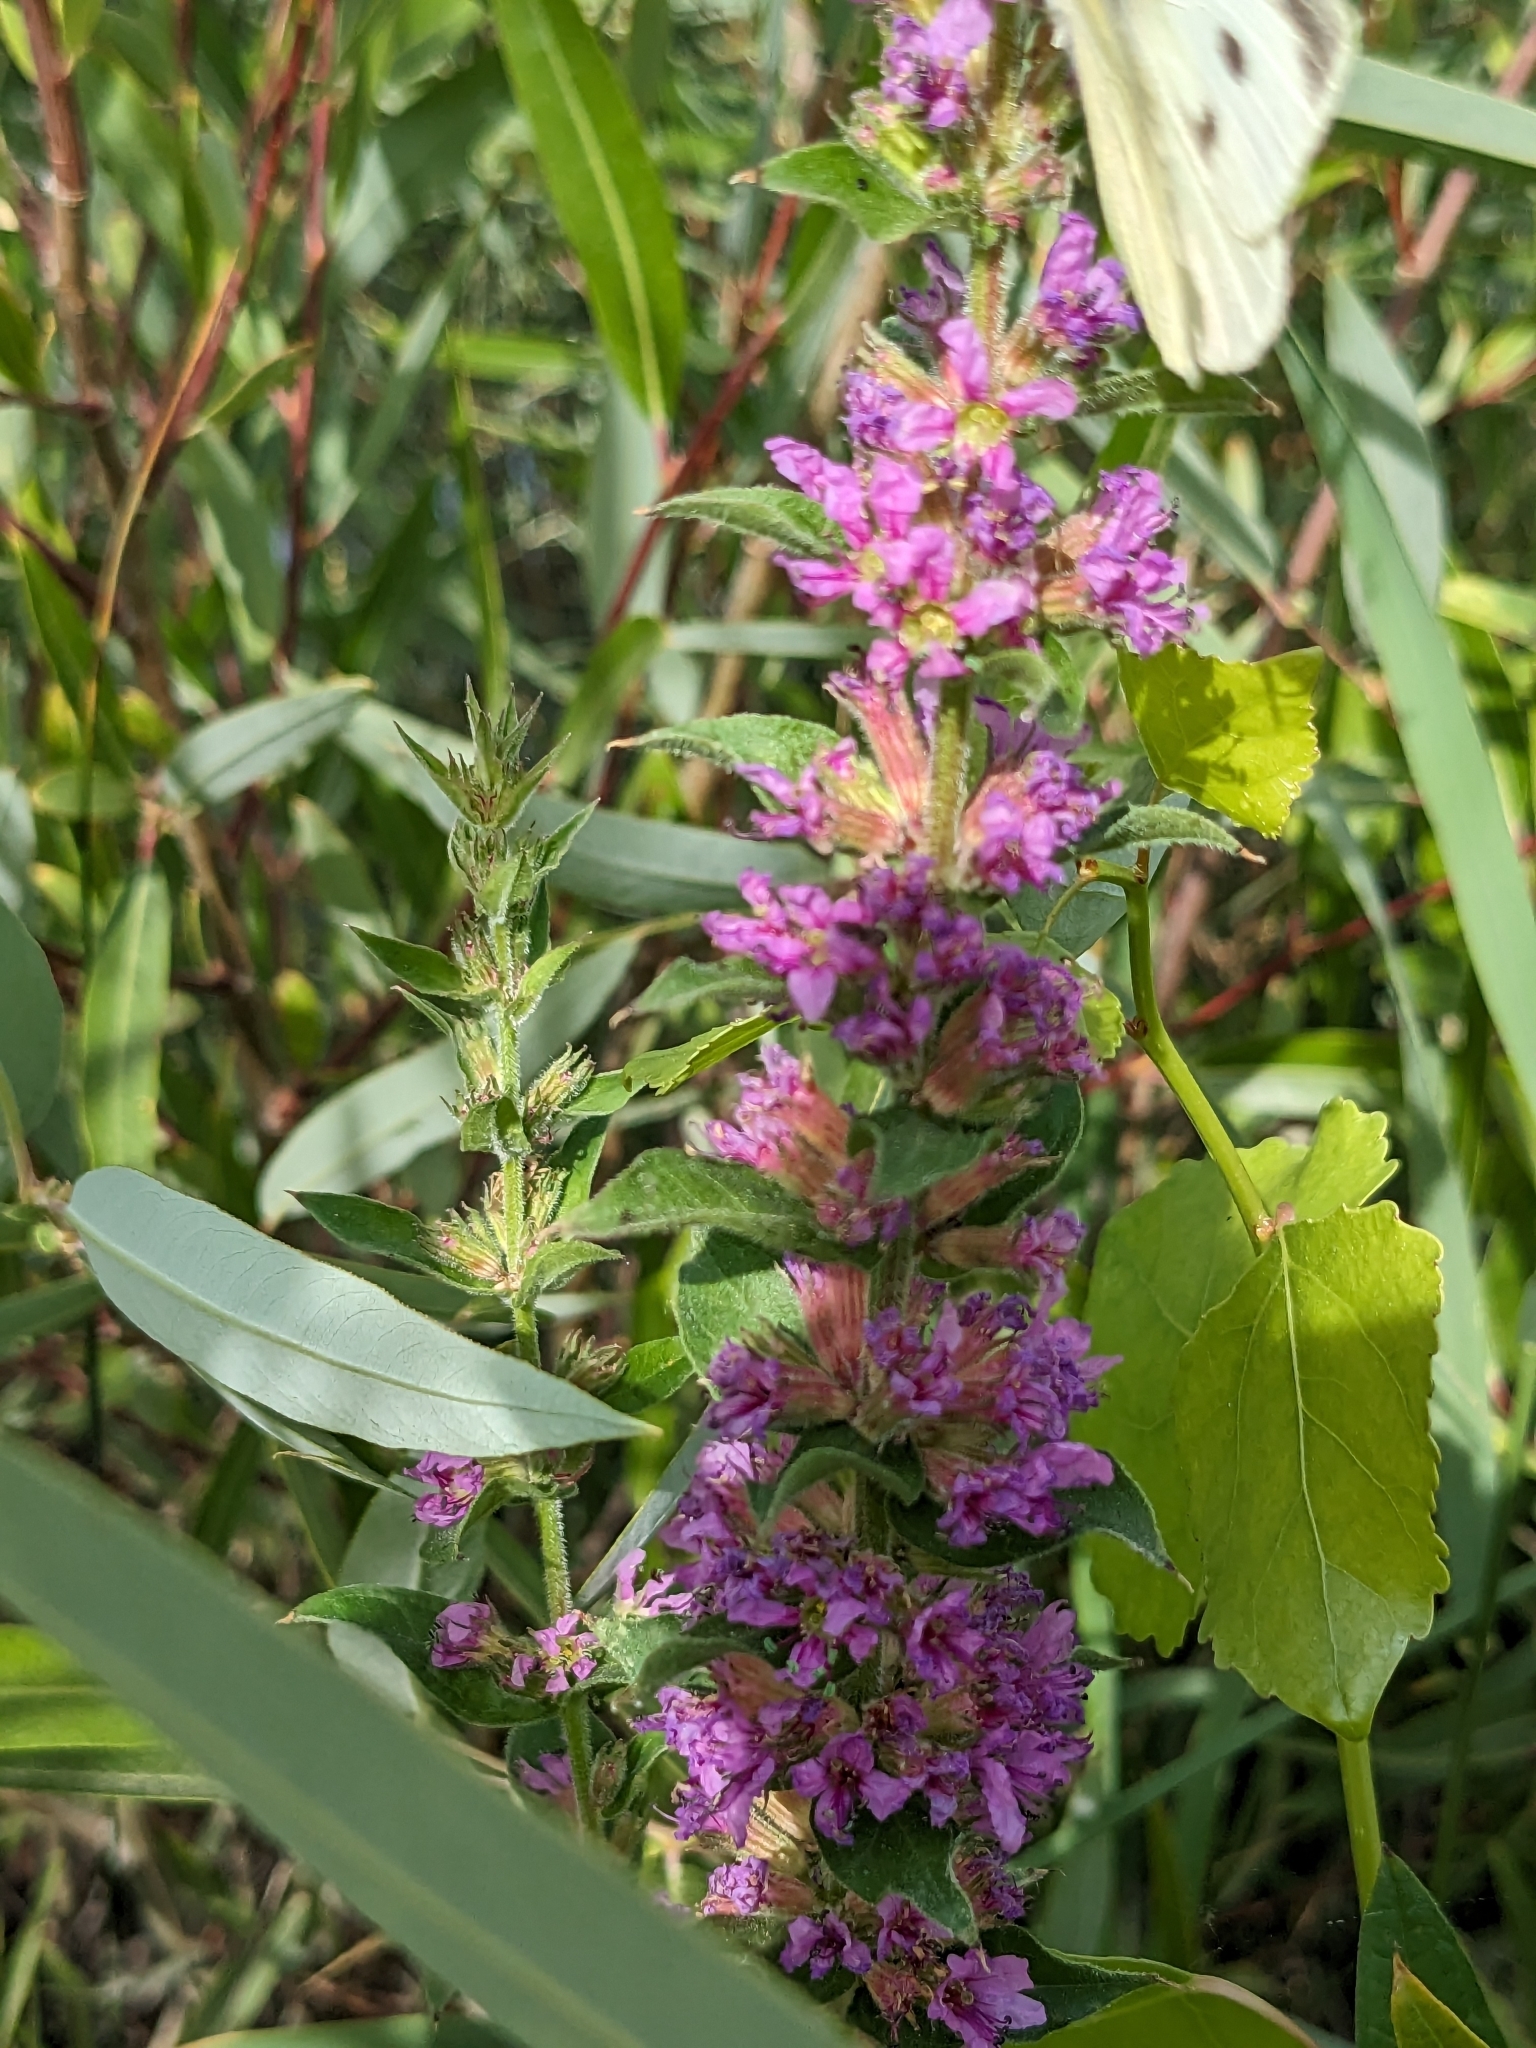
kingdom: Plantae
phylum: Tracheophyta
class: Magnoliopsida
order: Myrtales
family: Lythraceae
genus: Lythrum
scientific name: Lythrum salicaria
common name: Purple loosestrife
